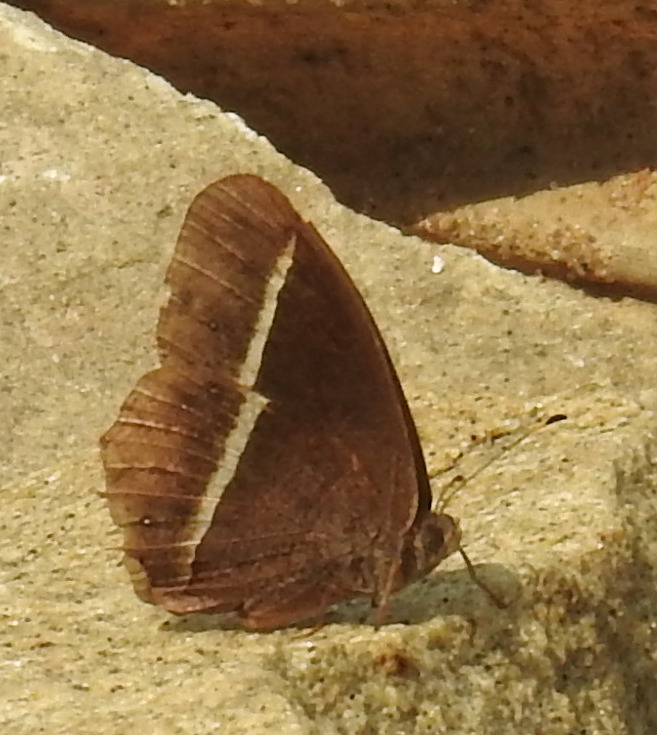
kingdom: Animalia
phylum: Arthropoda
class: Insecta
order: Lepidoptera
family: Nymphalidae
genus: Orsotriaena
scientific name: Orsotriaena medus
